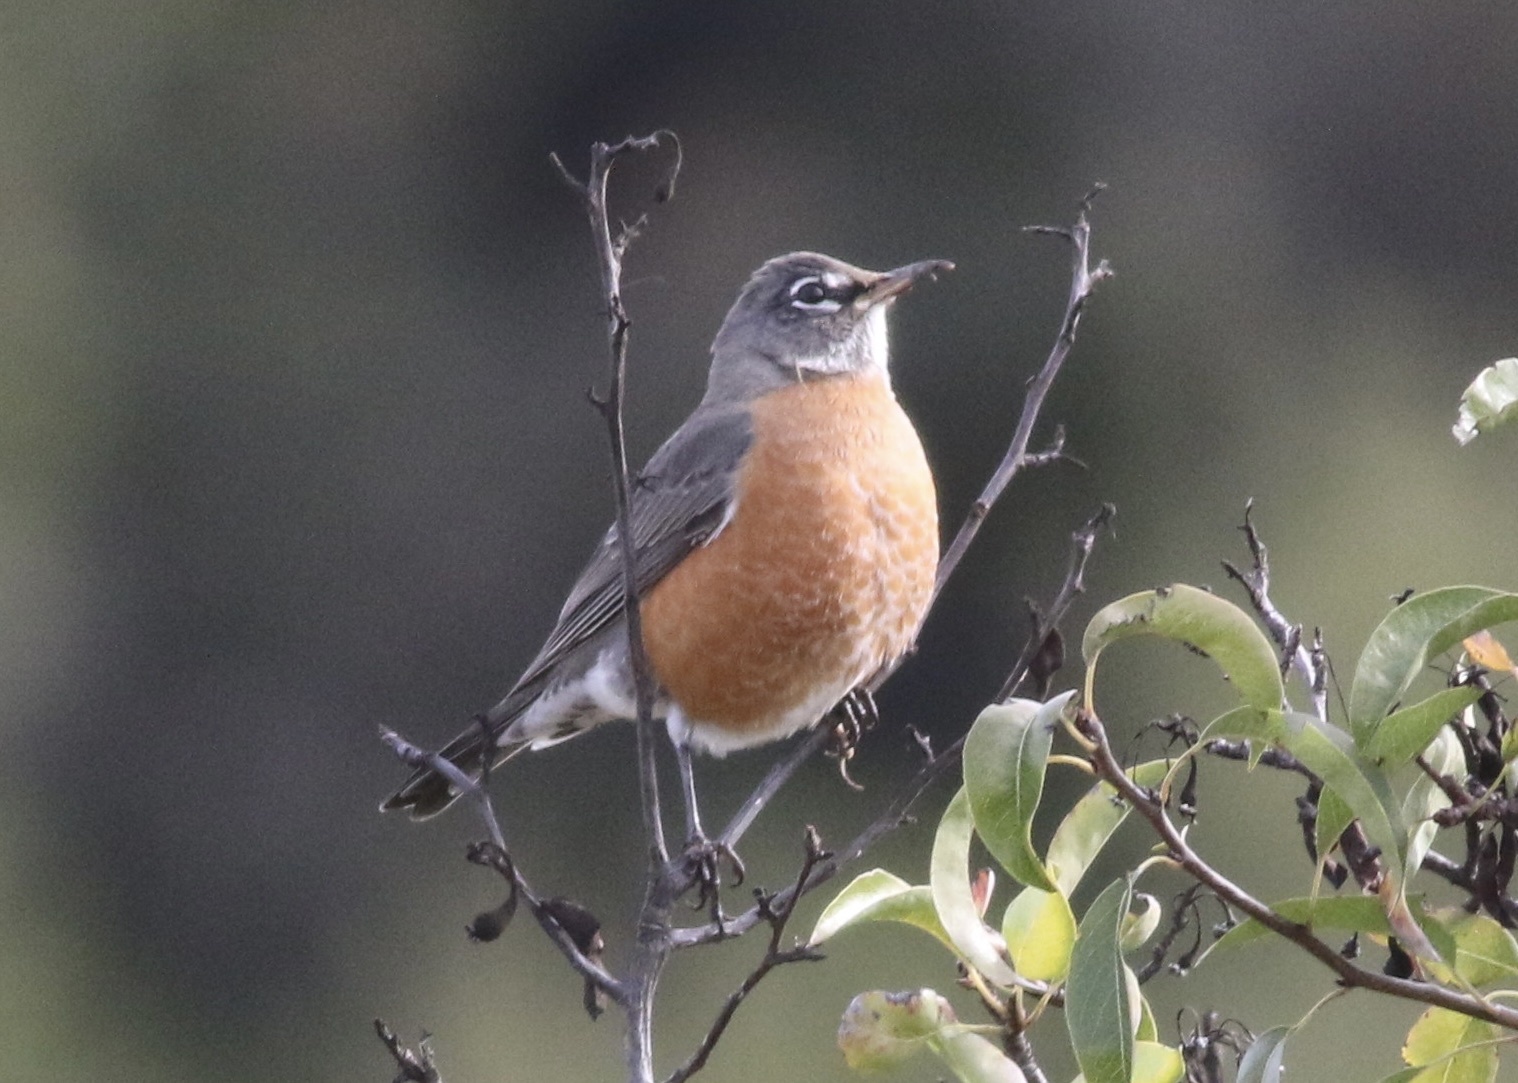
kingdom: Animalia
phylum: Chordata
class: Aves
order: Passeriformes
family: Turdidae
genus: Turdus
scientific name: Turdus migratorius
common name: American robin
